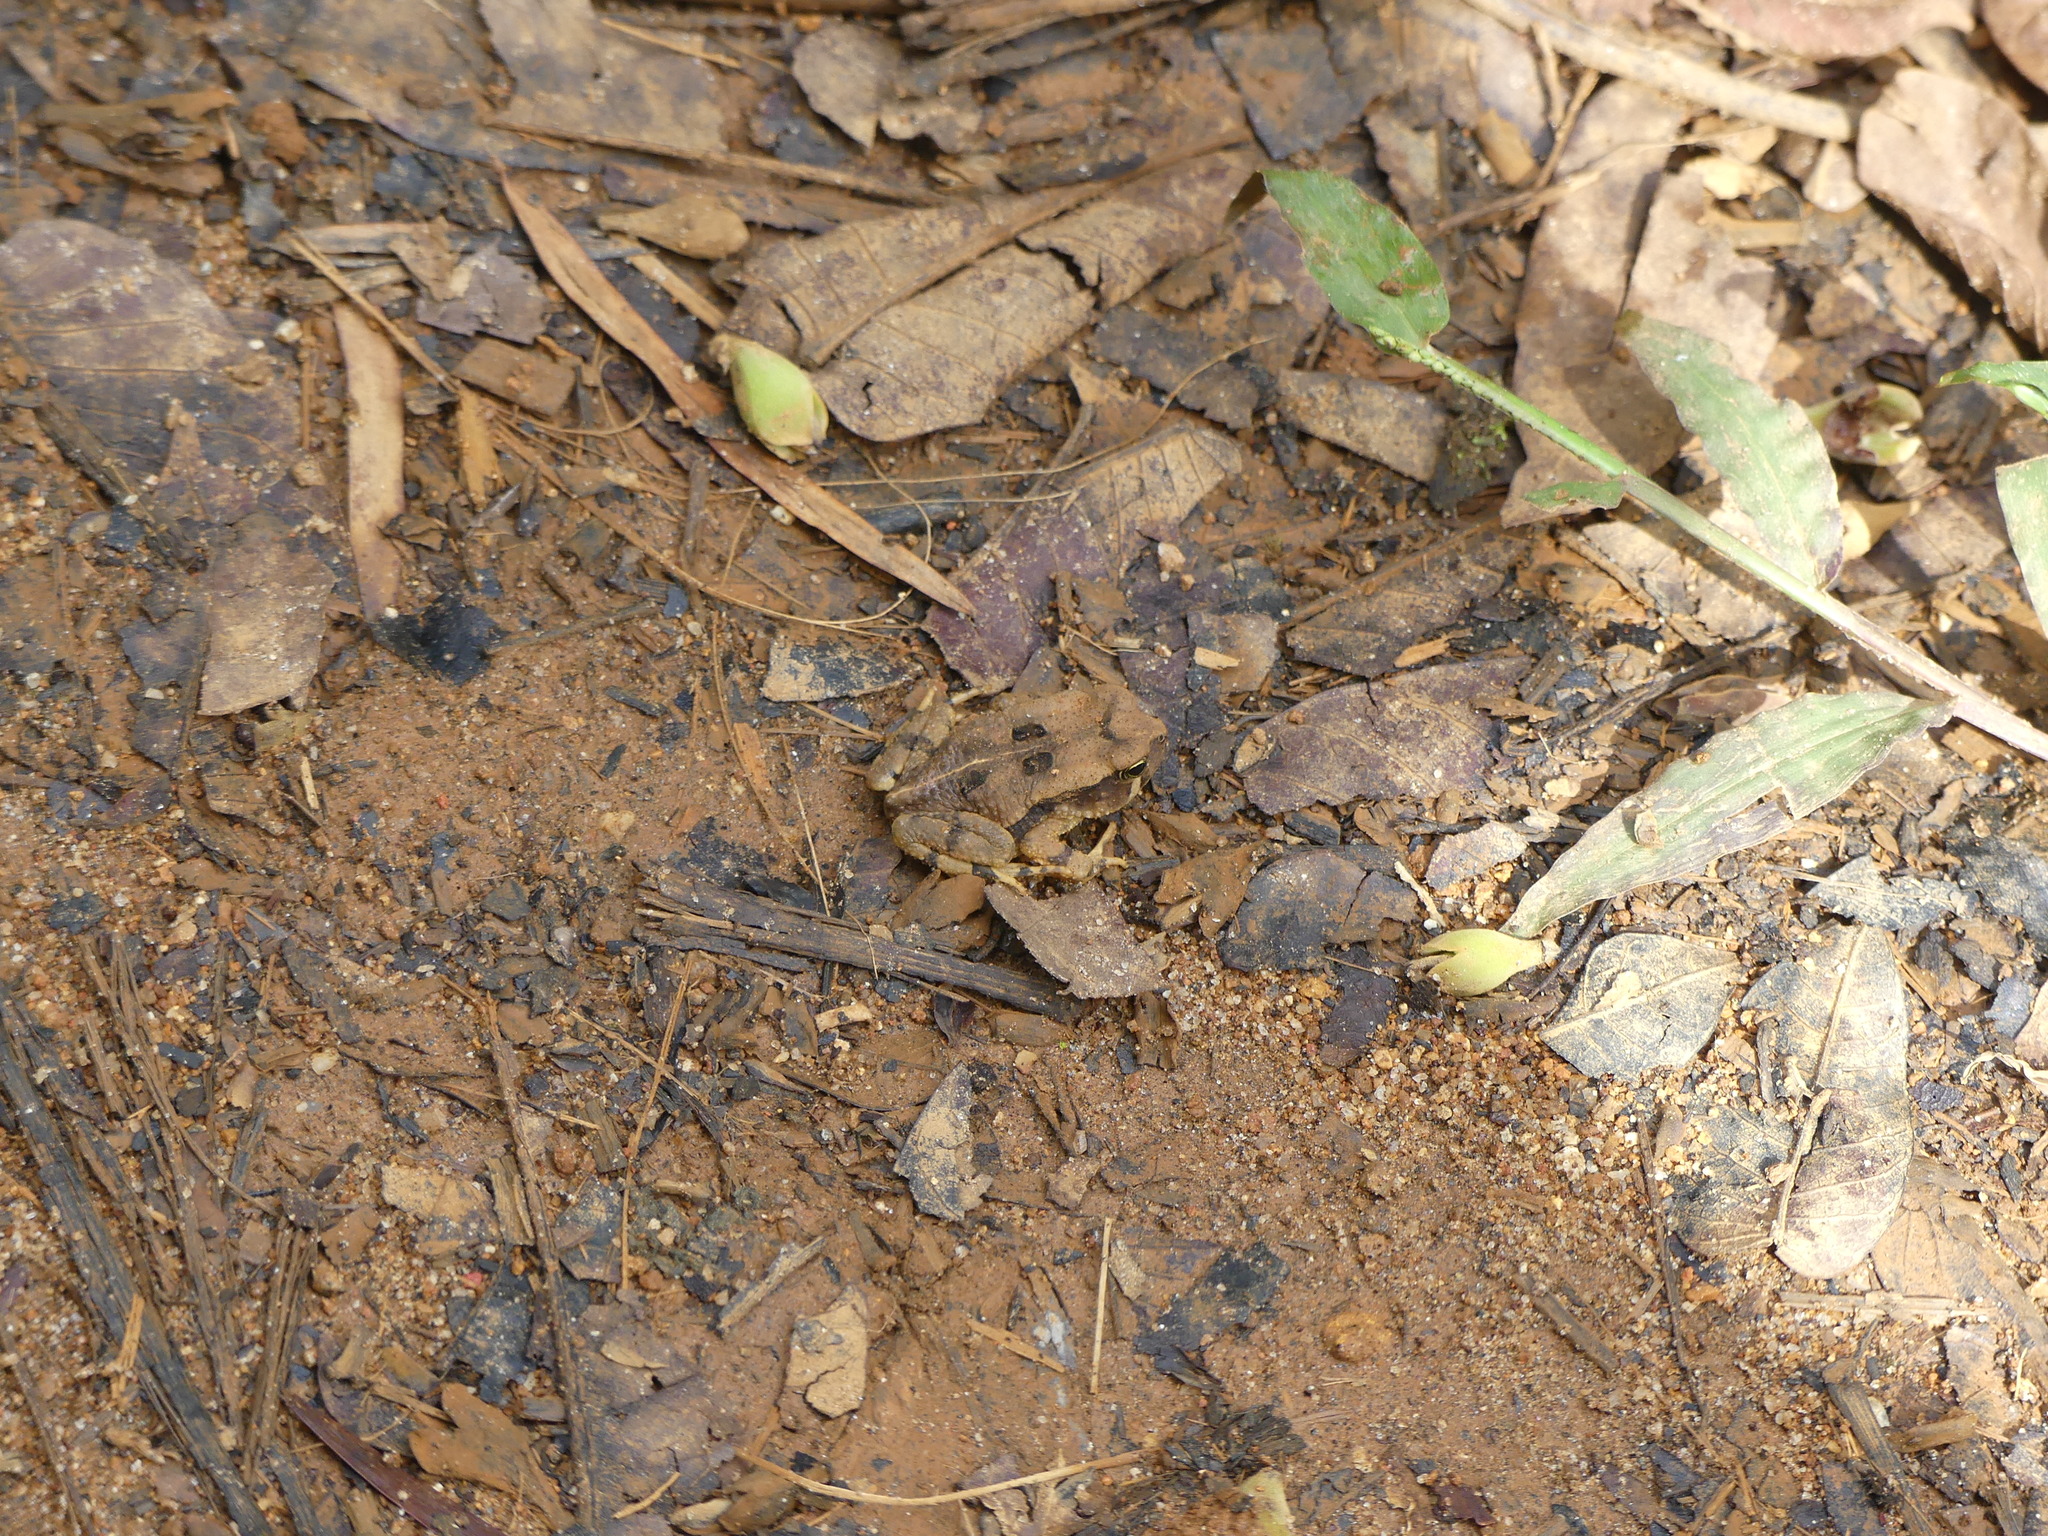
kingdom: Animalia
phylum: Chordata
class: Amphibia
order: Anura
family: Bufonidae
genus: Sclerophrys
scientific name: Sclerophrys brauni
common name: Braun's toad
